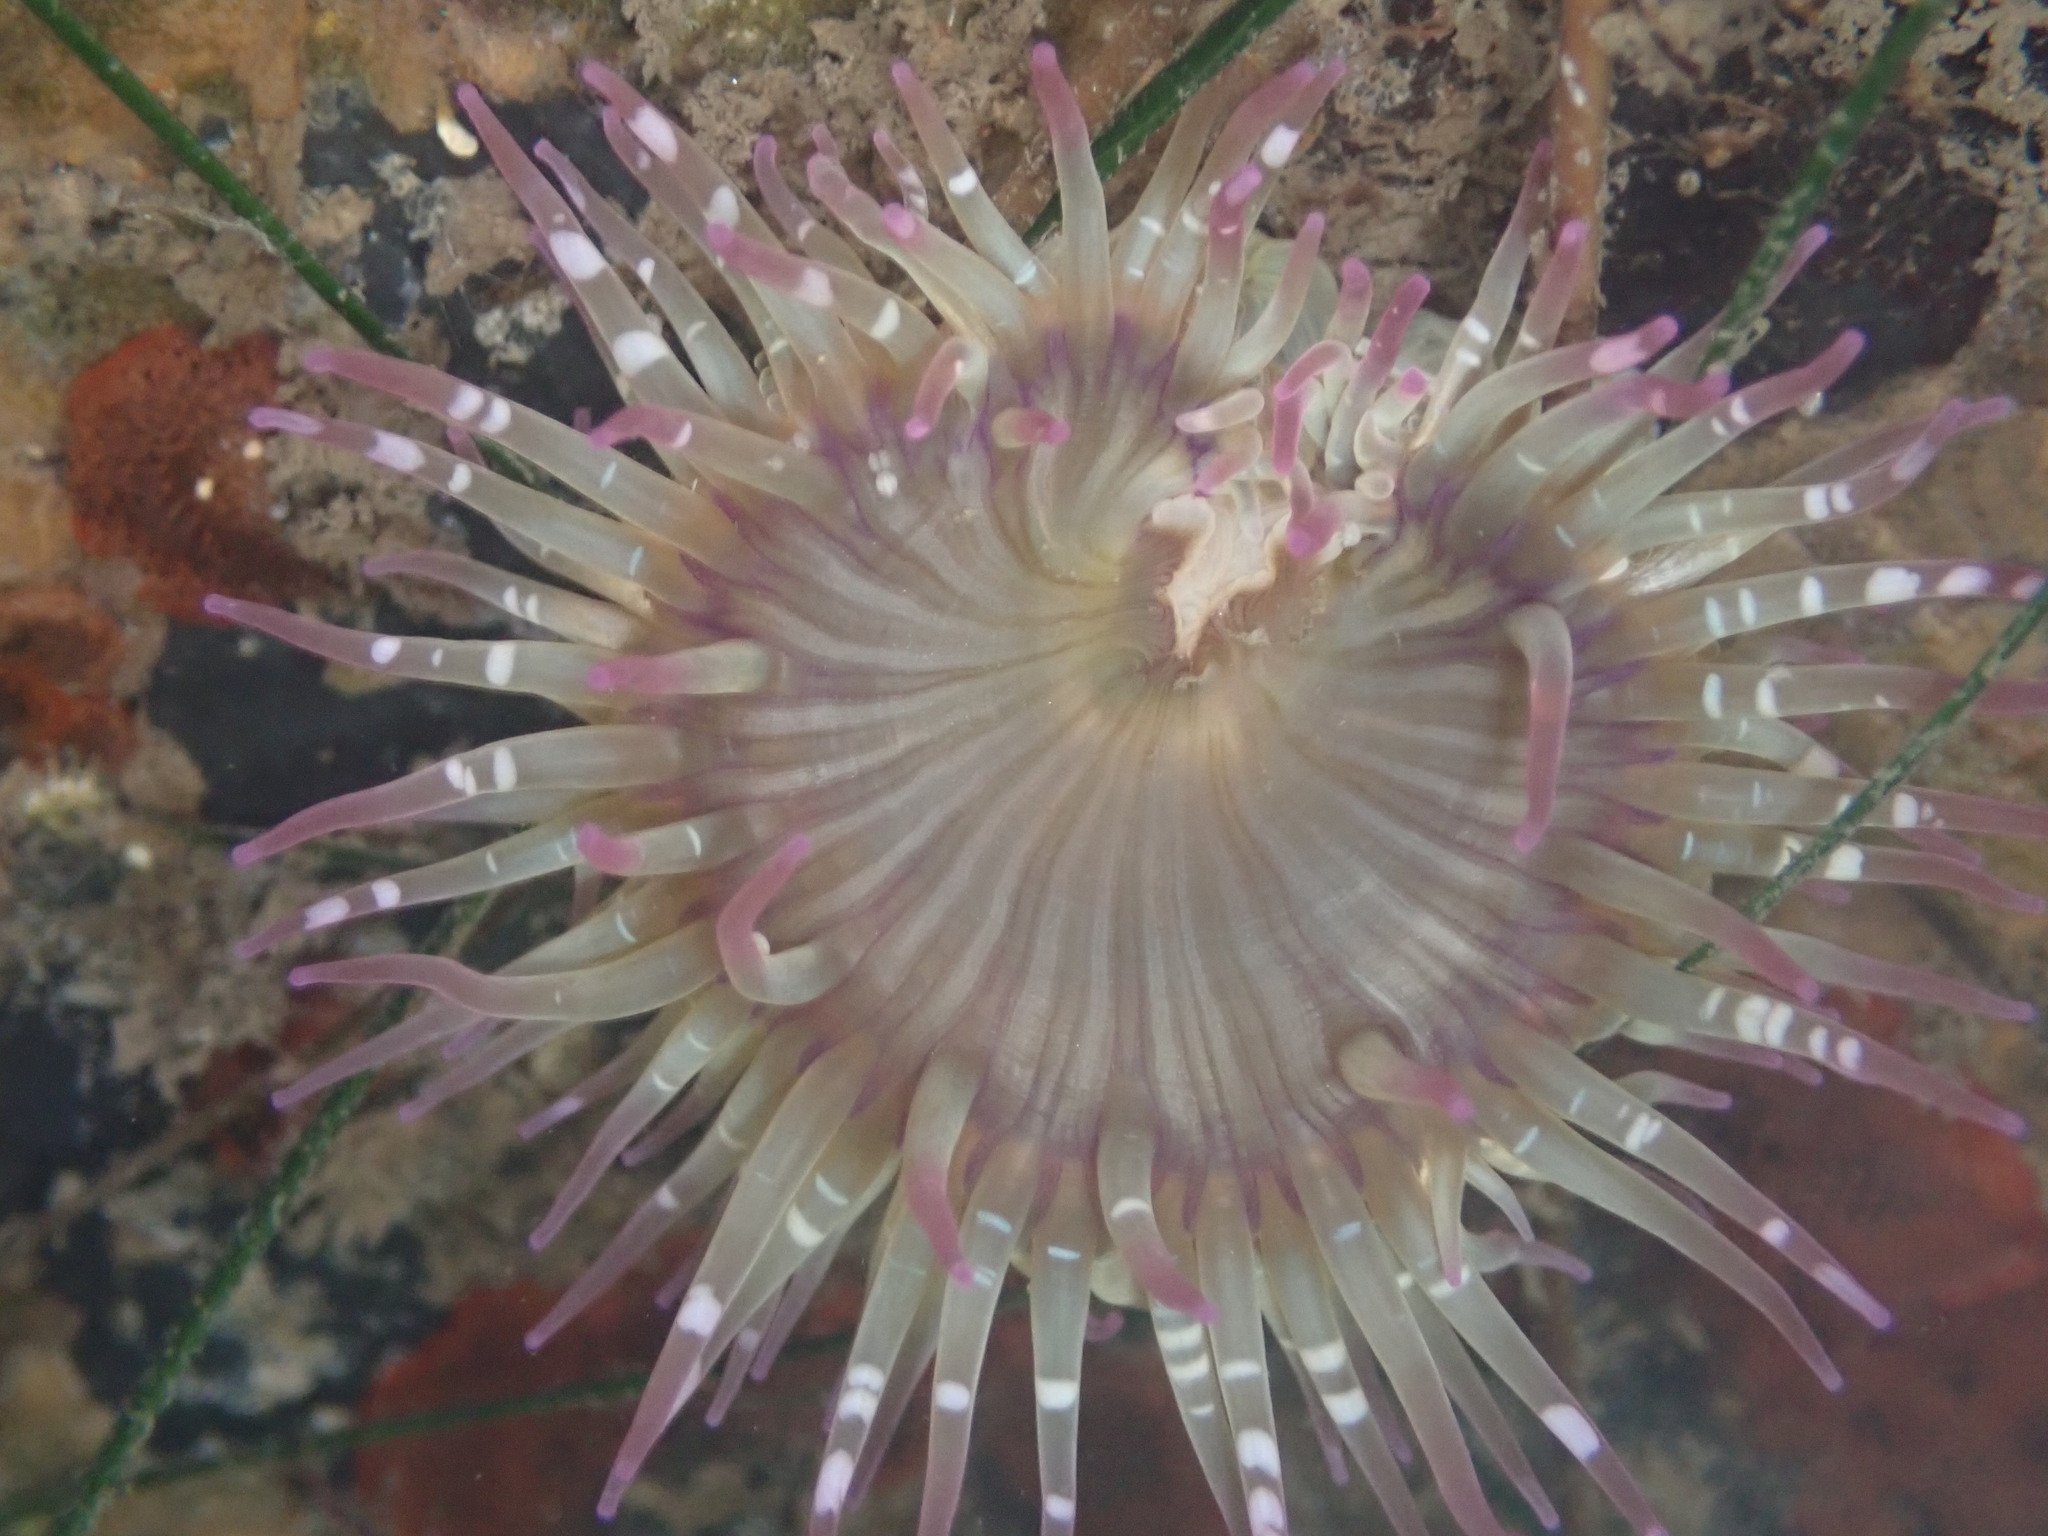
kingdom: Animalia
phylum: Cnidaria
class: Anthozoa
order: Actiniaria
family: Actiniidae
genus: Anthopleura
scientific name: Anthopleura elegantissima
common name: Clonal anemone
